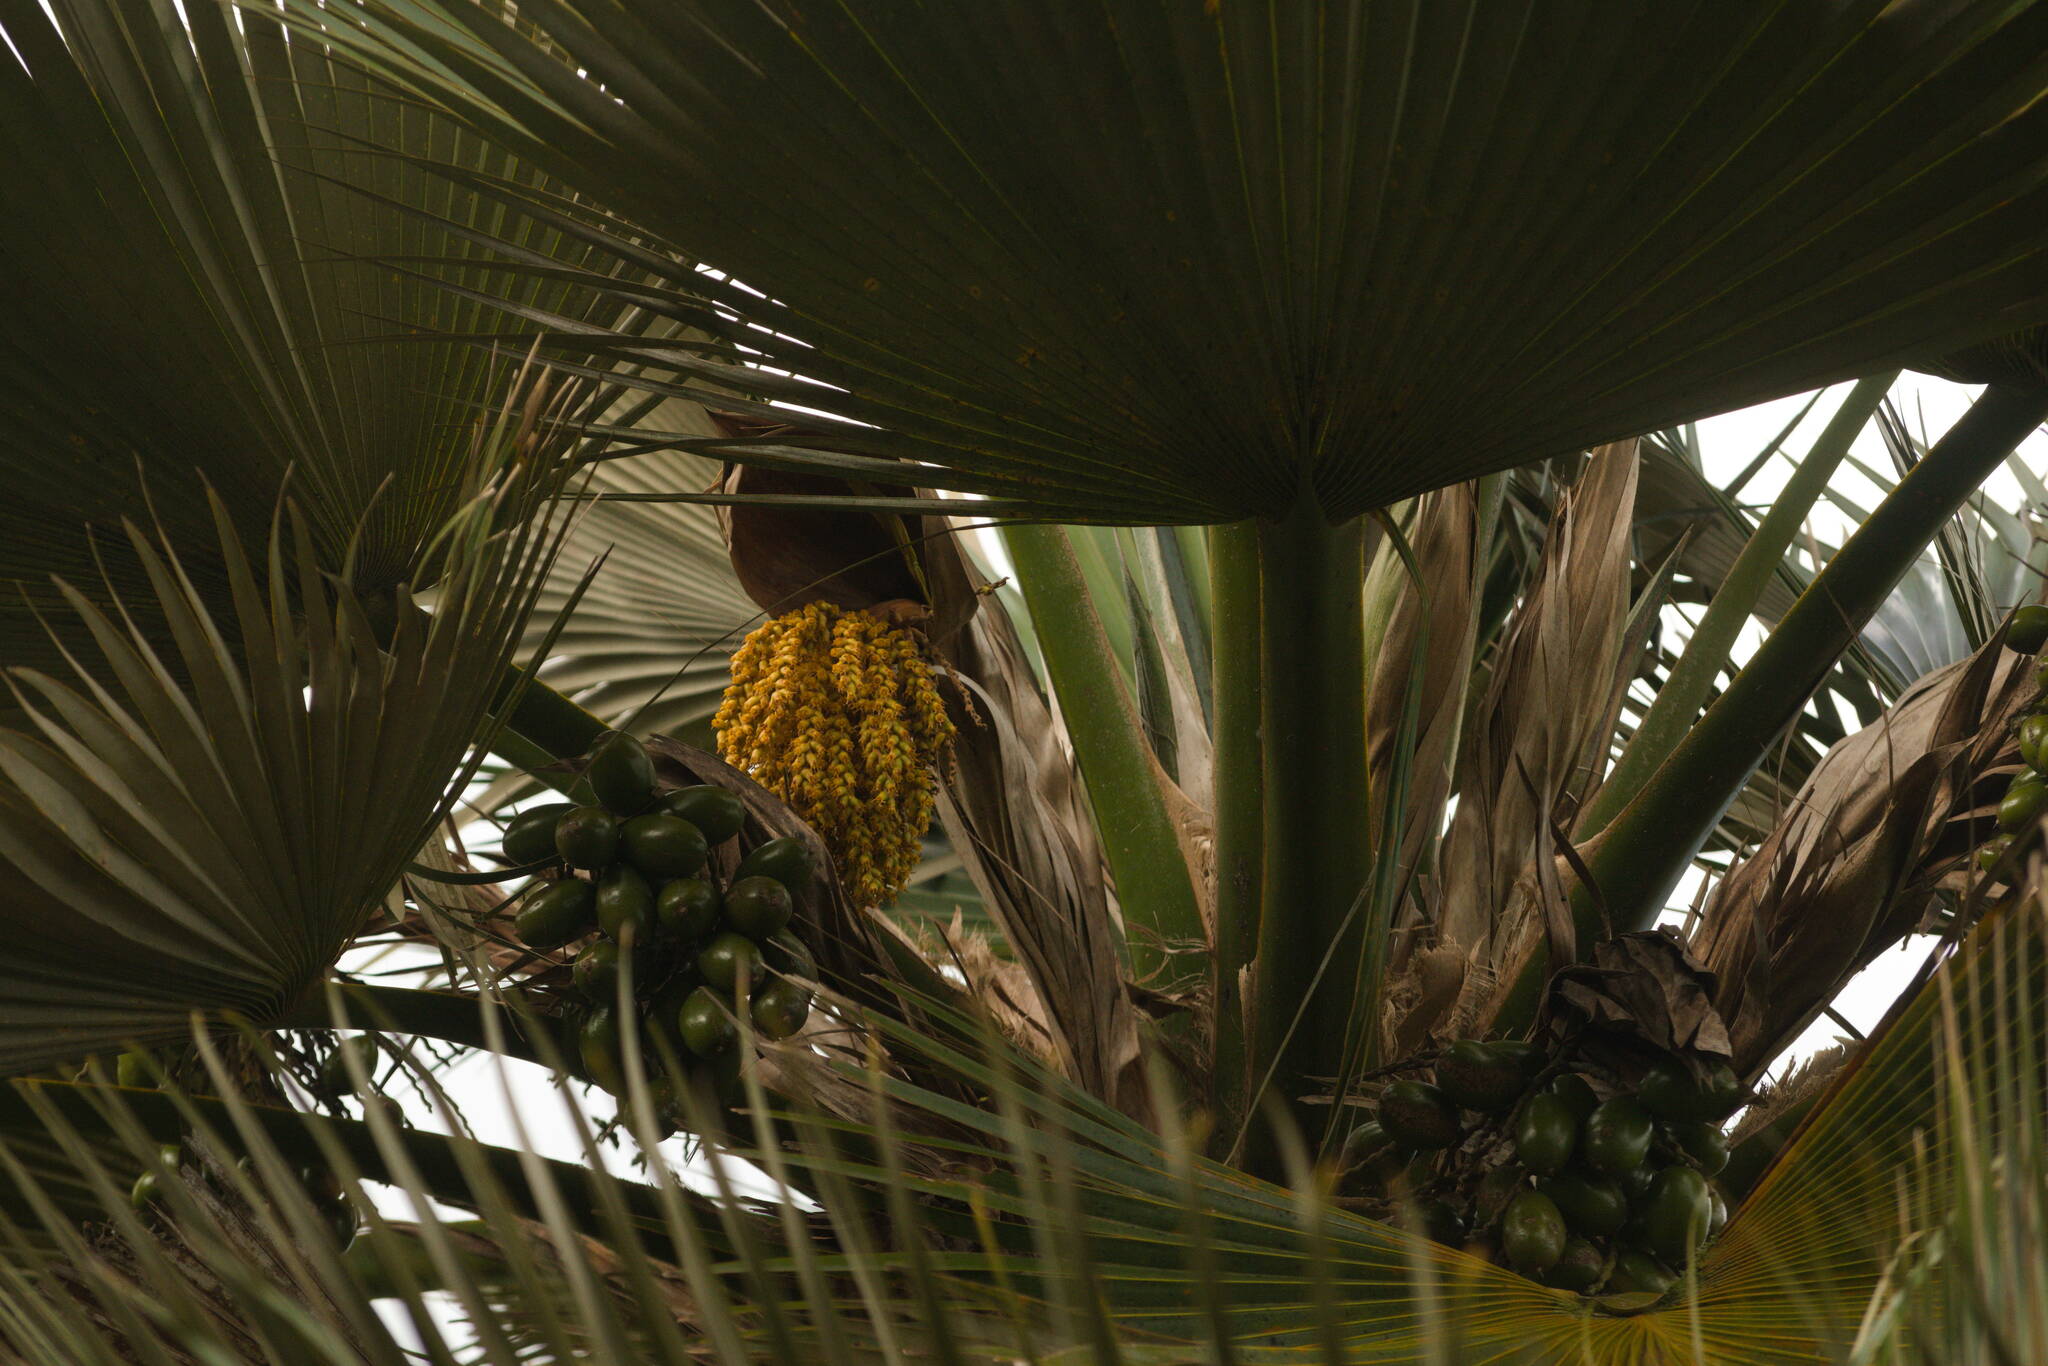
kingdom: Plantae
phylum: Tracheophyta
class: Liliopsida
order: Arecales
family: Arecaceae
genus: Pritchardia
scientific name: Pritchardia martii
